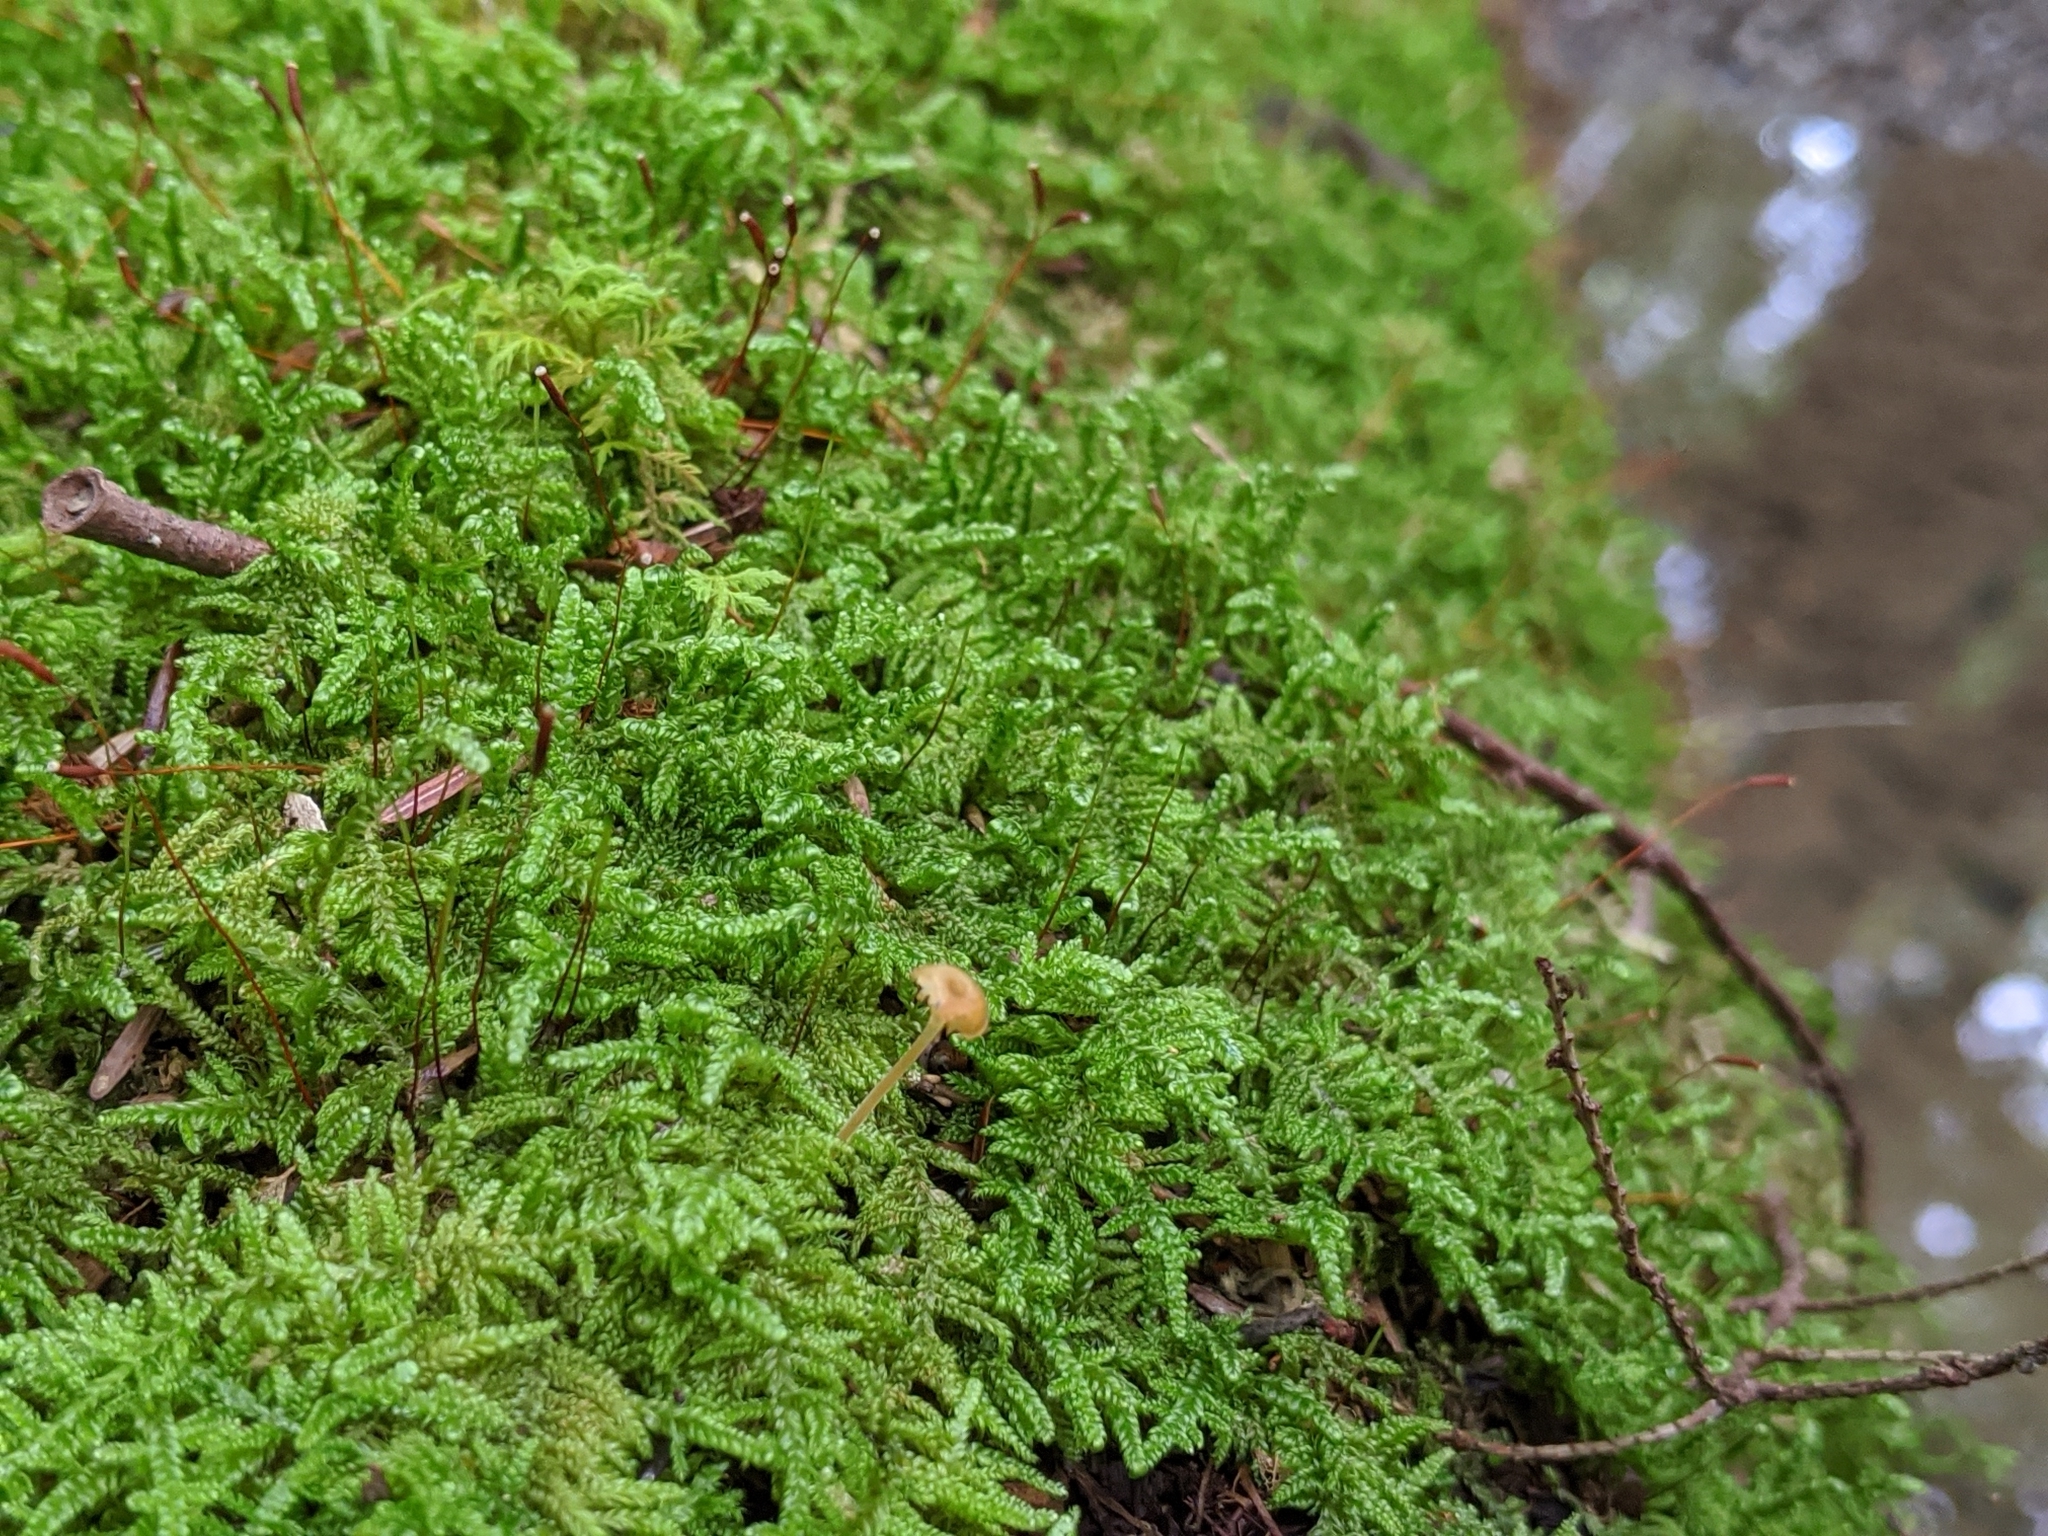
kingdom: Fungi
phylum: Basidiomycota
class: Agaricomycetes
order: Hymenochaetales
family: Rickenellaceae
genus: Rickenella
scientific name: Rickenella fibula
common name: Orange mosscap
